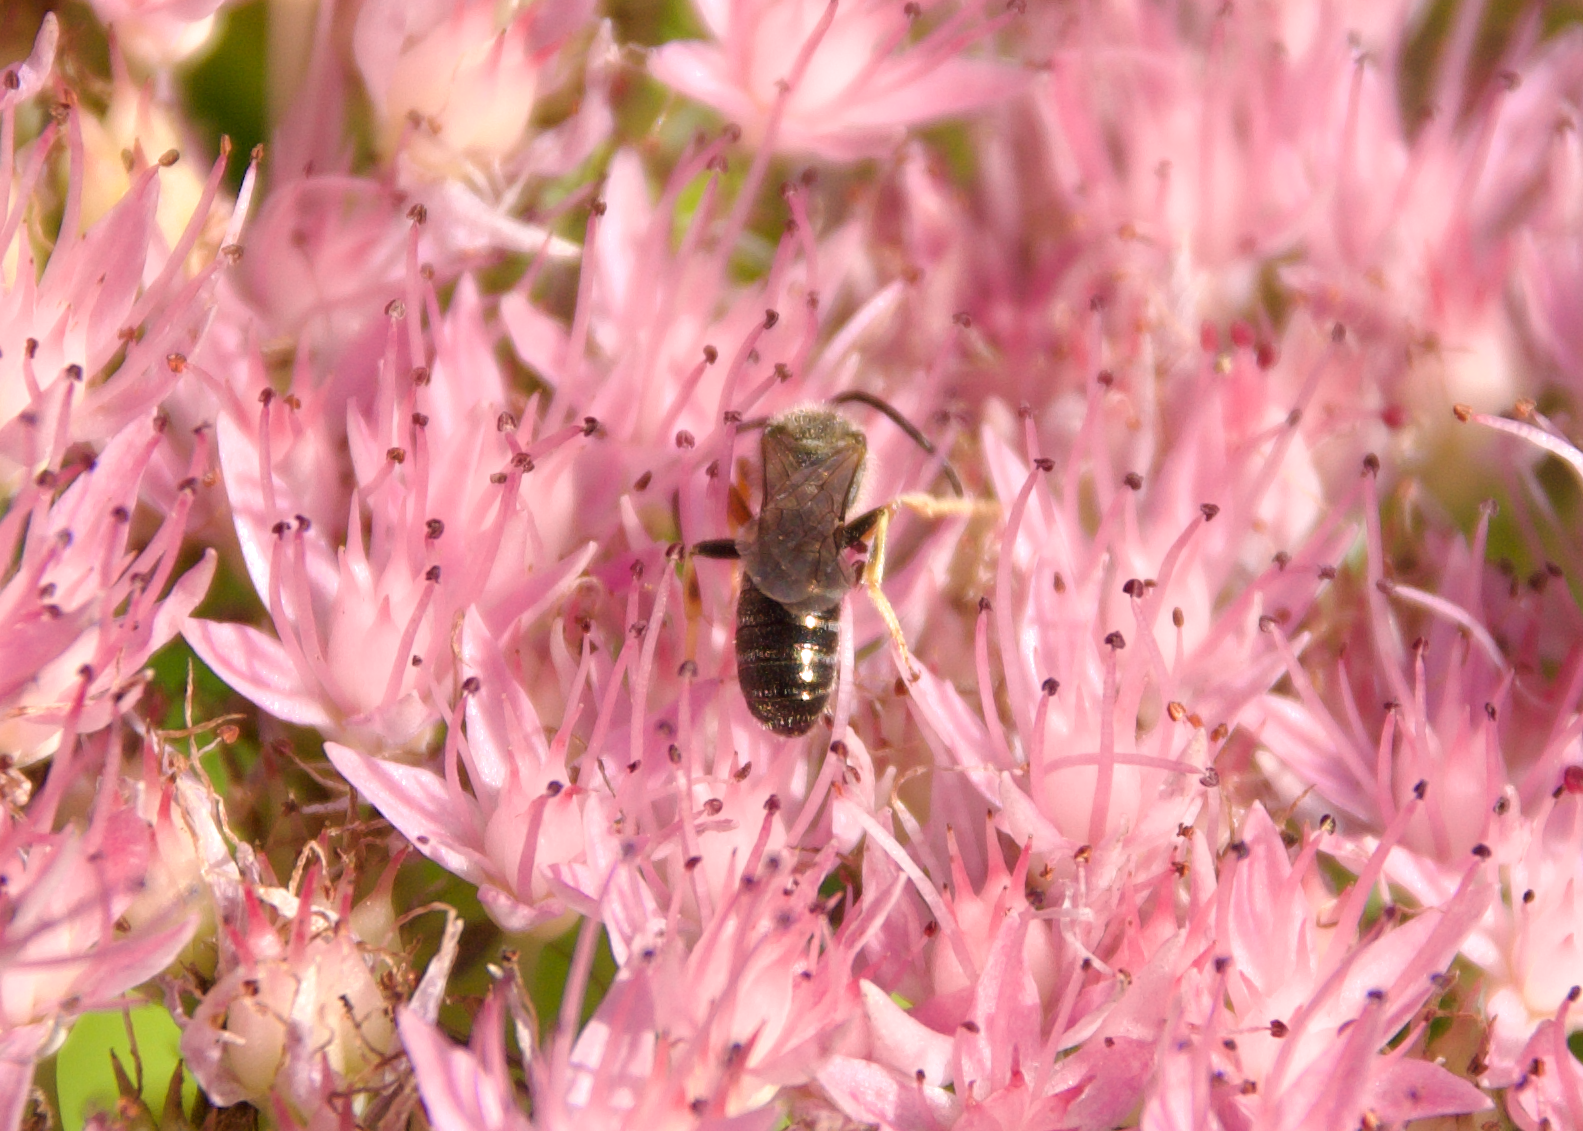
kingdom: Animalia
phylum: Arthropoda
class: Insecta
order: Hymenoptera
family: Halictidae
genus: Halictus
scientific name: Halictus confusus
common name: Southern bronze furrow bee
